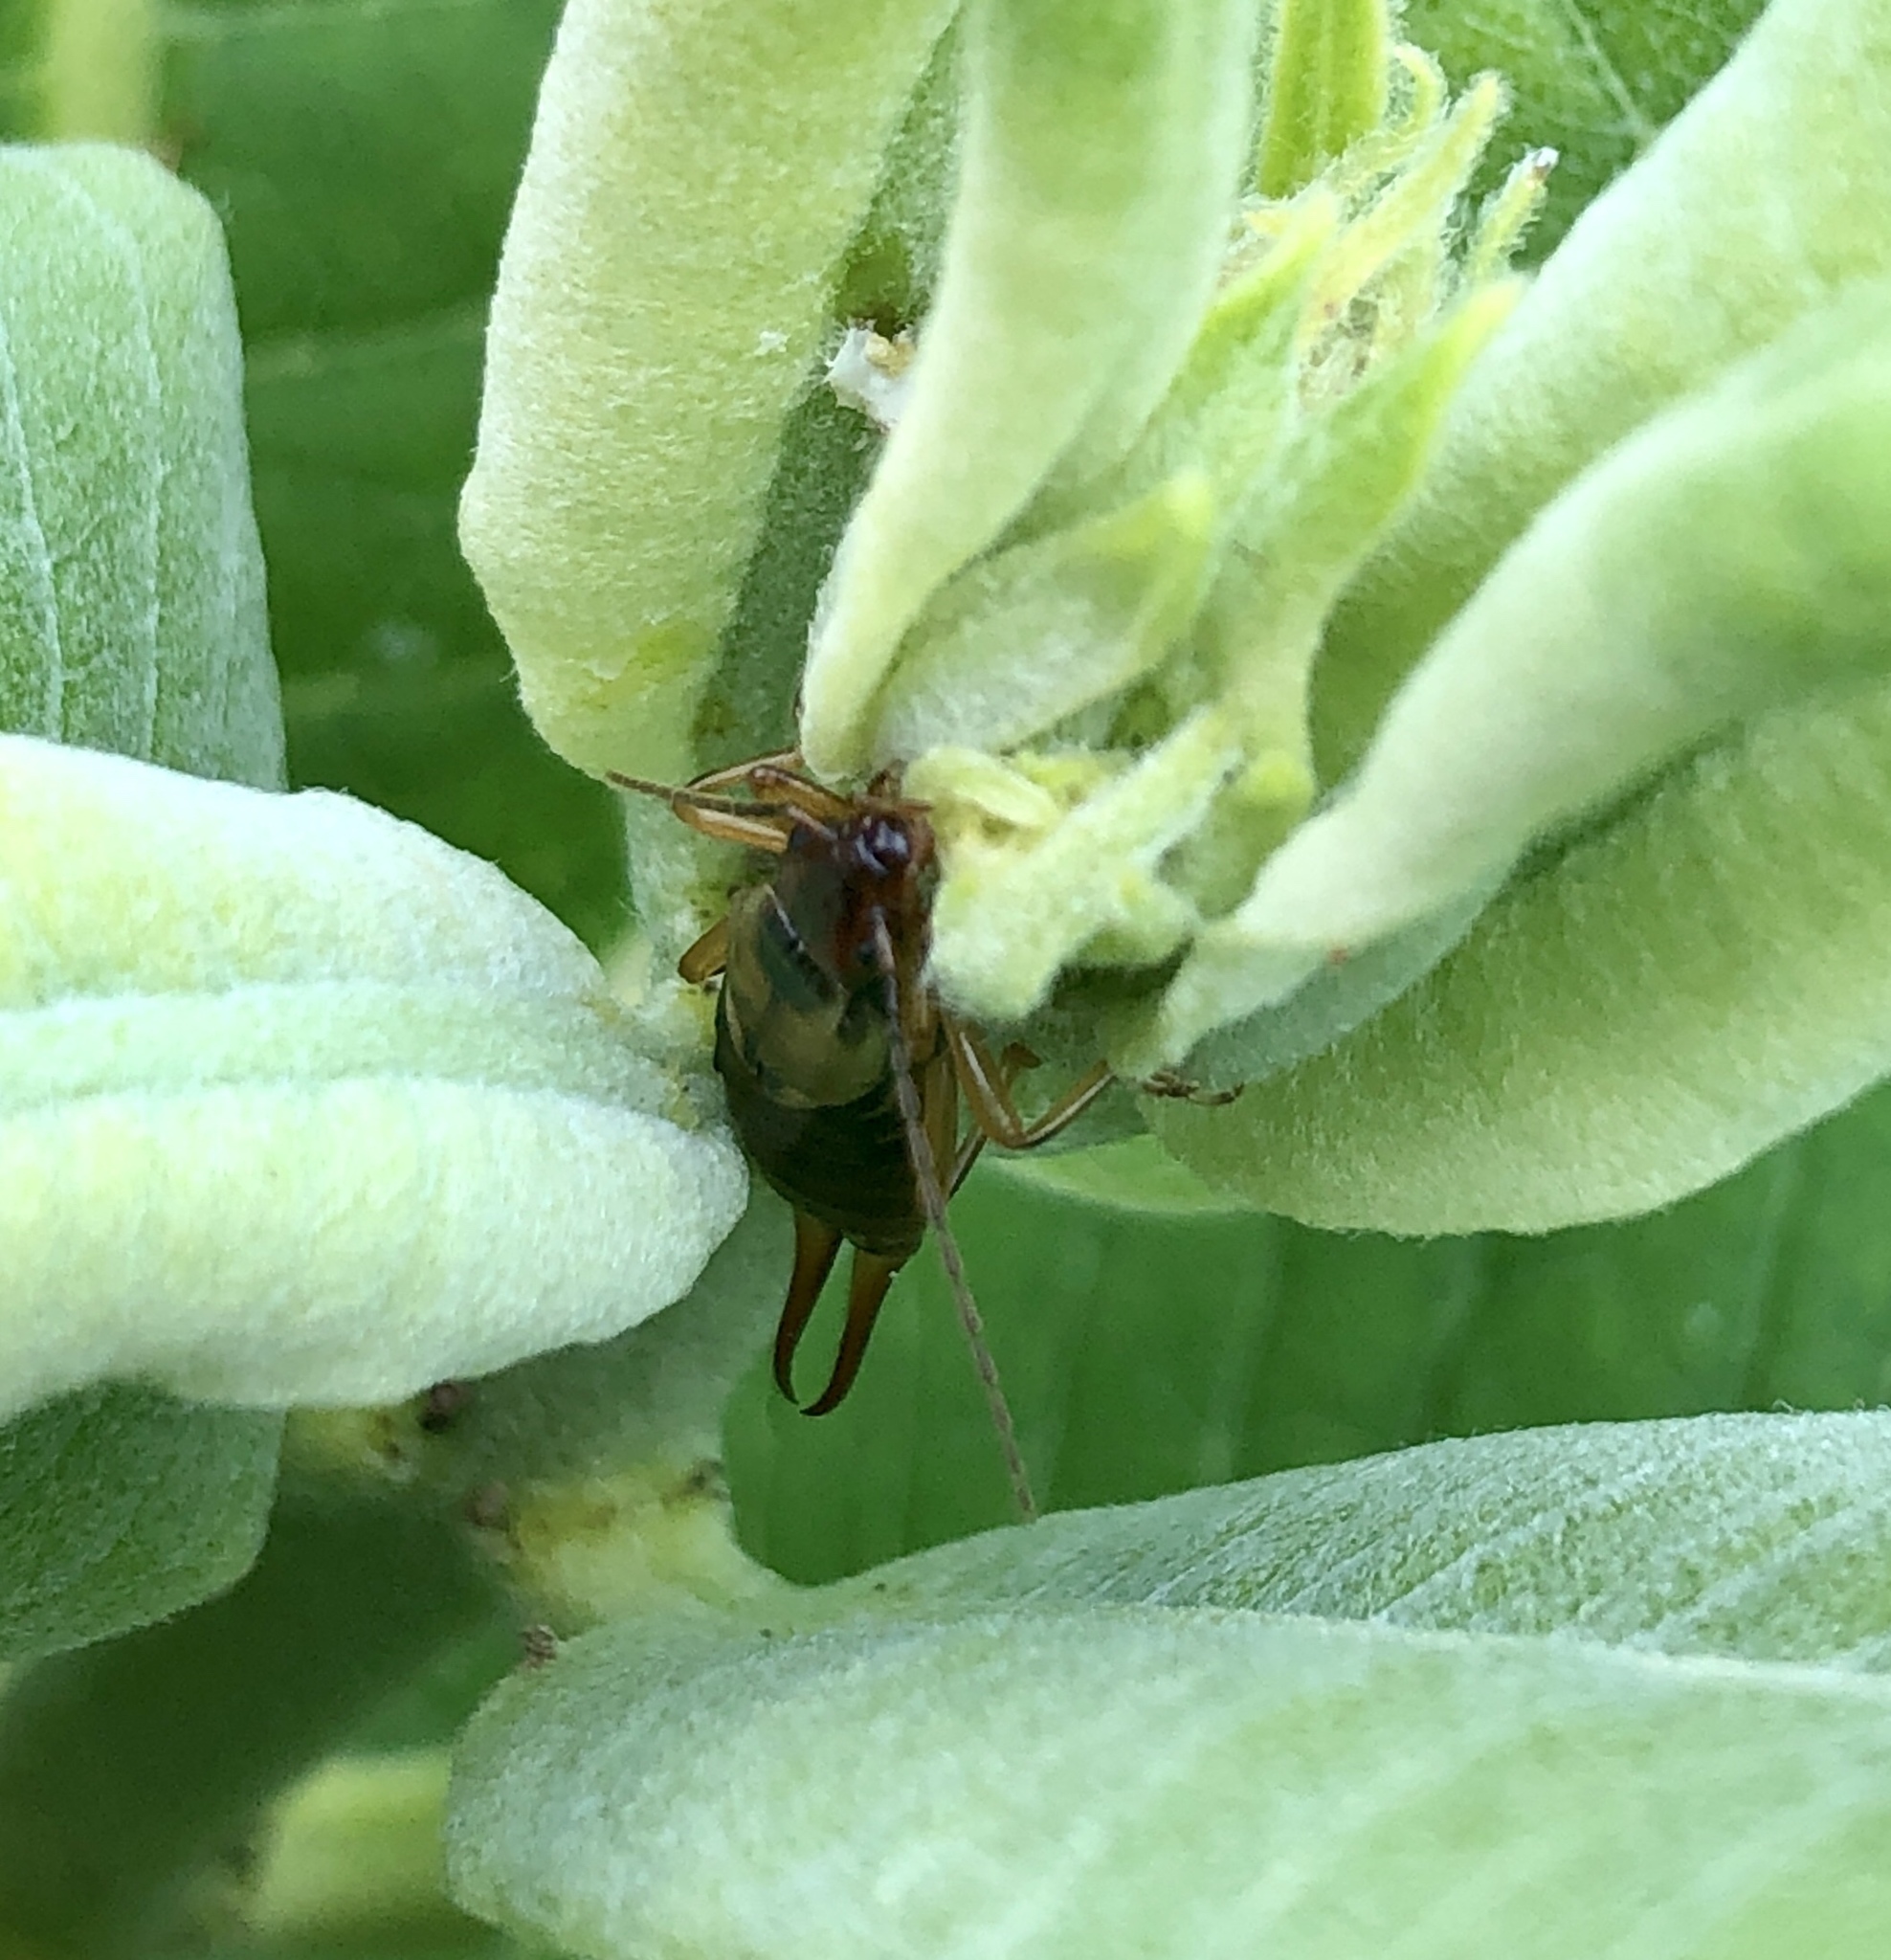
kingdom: Animalia
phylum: Arthropoda
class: Insecta
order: Dermaptera
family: Forficulidae
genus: Forficula
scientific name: Forficula
